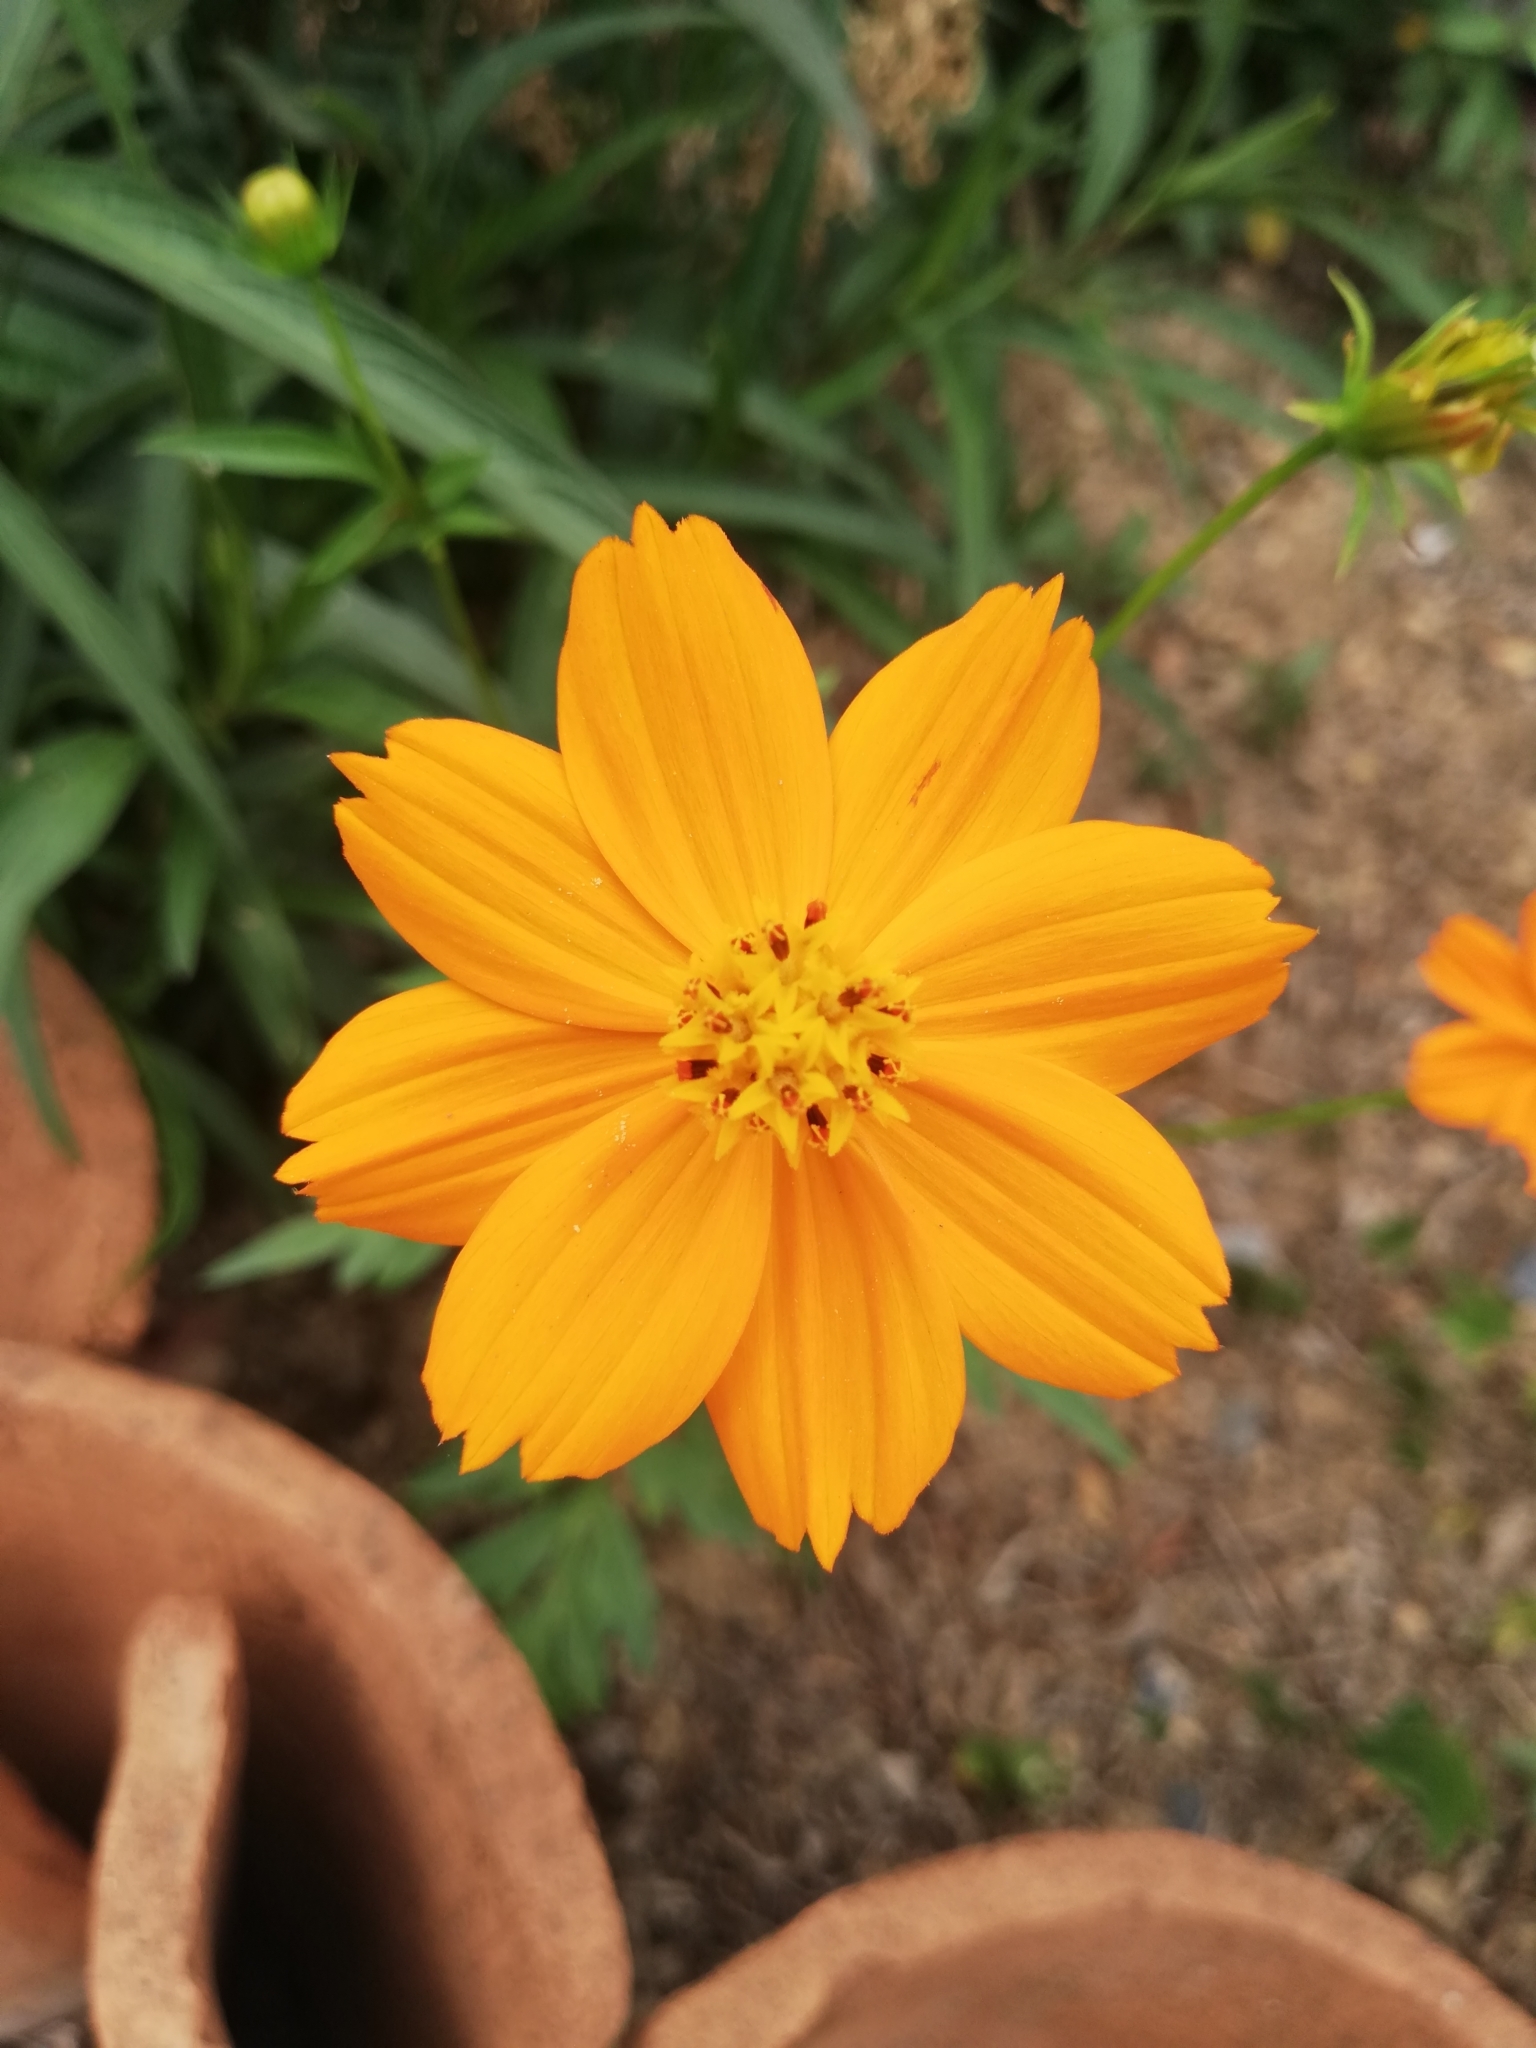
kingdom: Plantae
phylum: Tracheophyta
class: Magnoliopsida
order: Asterales
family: Asteraceae
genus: Cosmos
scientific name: Cosmos sulphureus
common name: Sulphur cosmos
